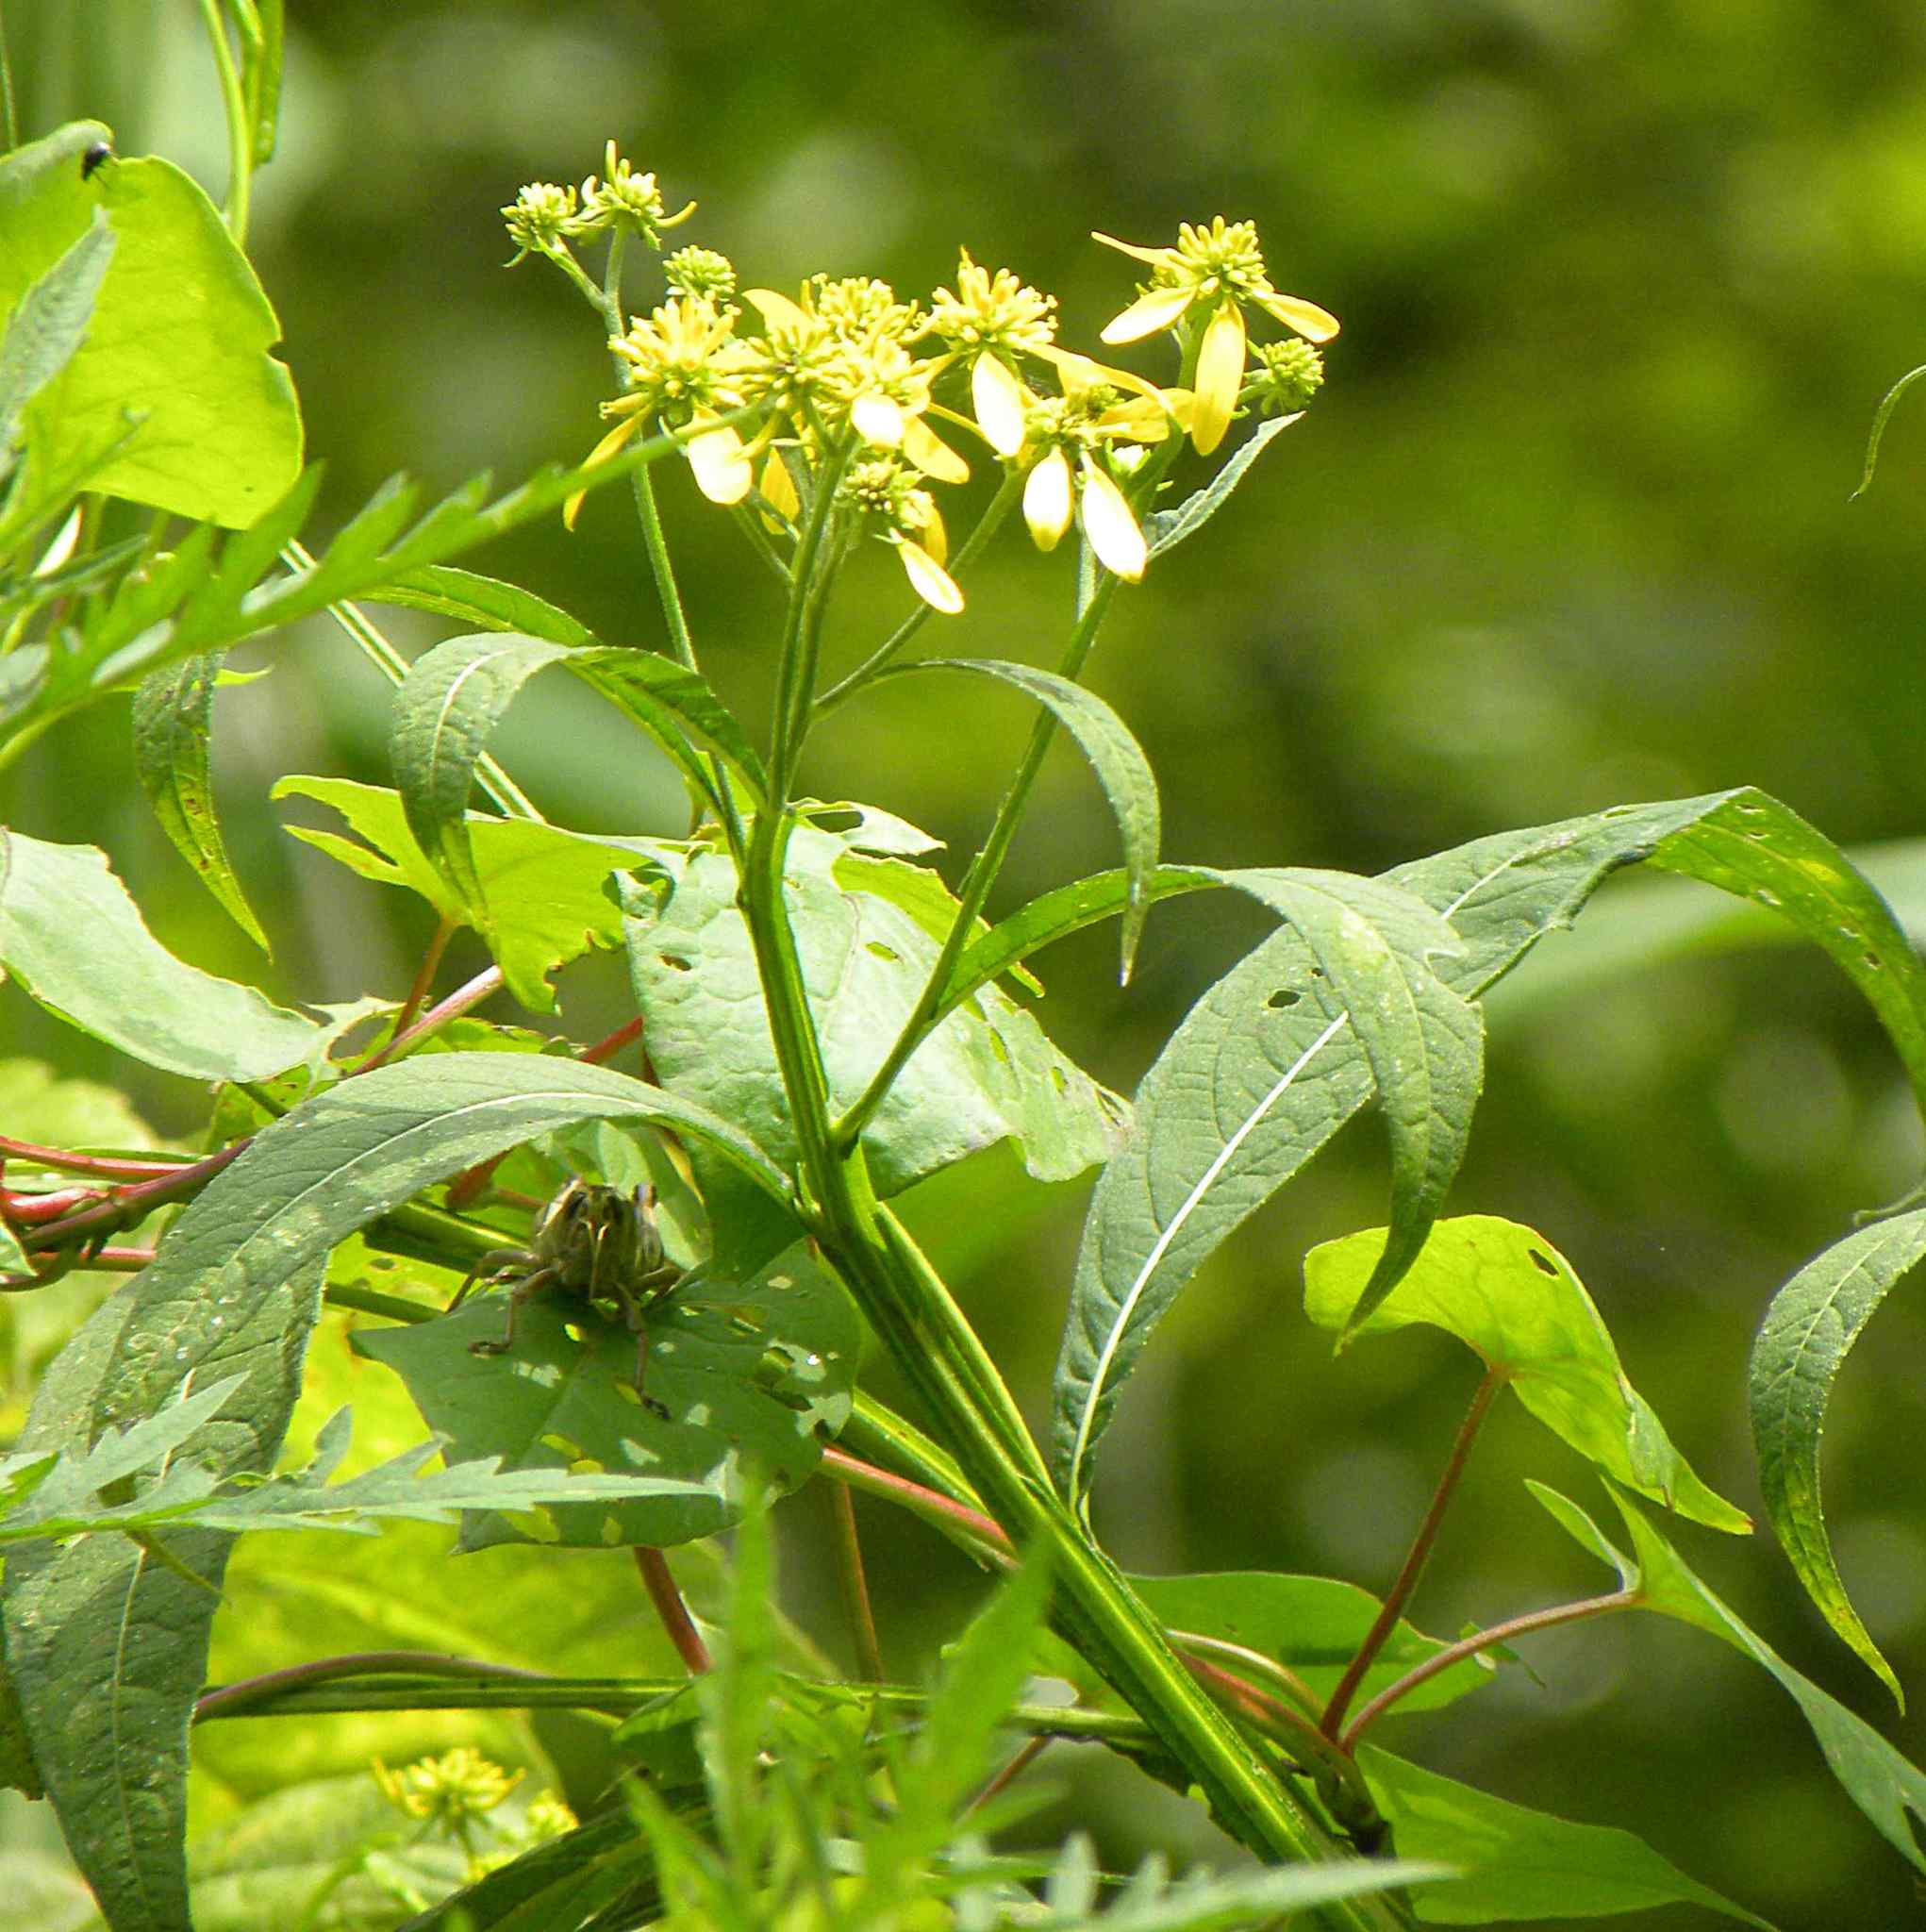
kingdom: Plantae
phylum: Tracheophyta
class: Magnoliopsida
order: Asterales
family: Asteraceae
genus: Verbesina
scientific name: Verbesina alternifolia
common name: Wingstem
